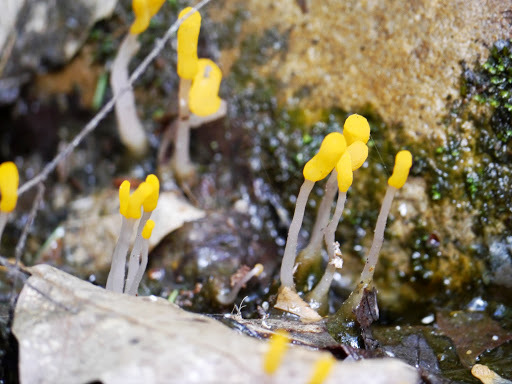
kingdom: Fungi
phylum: Ascomycota
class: Leotiomycetes
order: Helotiales
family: Sclerotiniaceae
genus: Mitrula
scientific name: Mitrula elegans
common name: Swamp beacon
